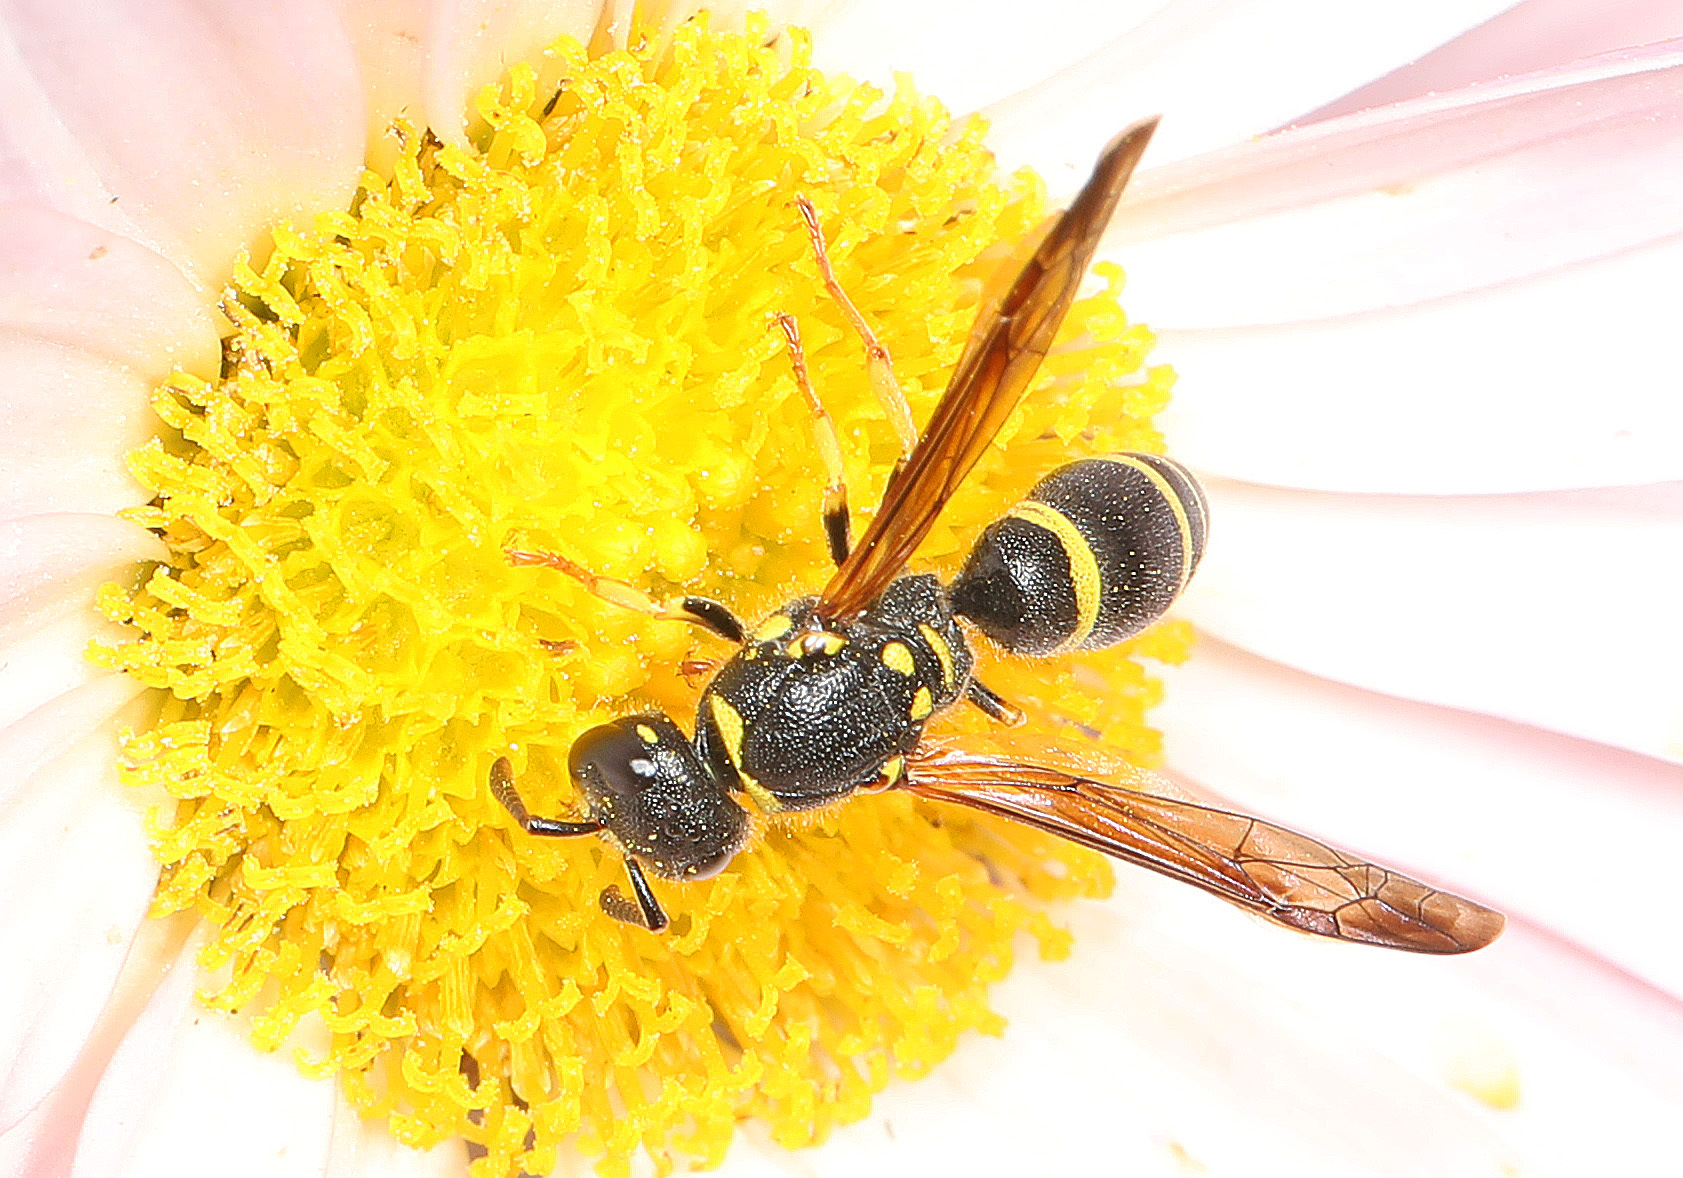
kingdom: Animalia
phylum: Arthropoda
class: Insecta
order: Hymenoptera
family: Vespidae
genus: Ancistrocerus
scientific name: Ancistrocerus adiabatus
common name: Bramble mason wasp
